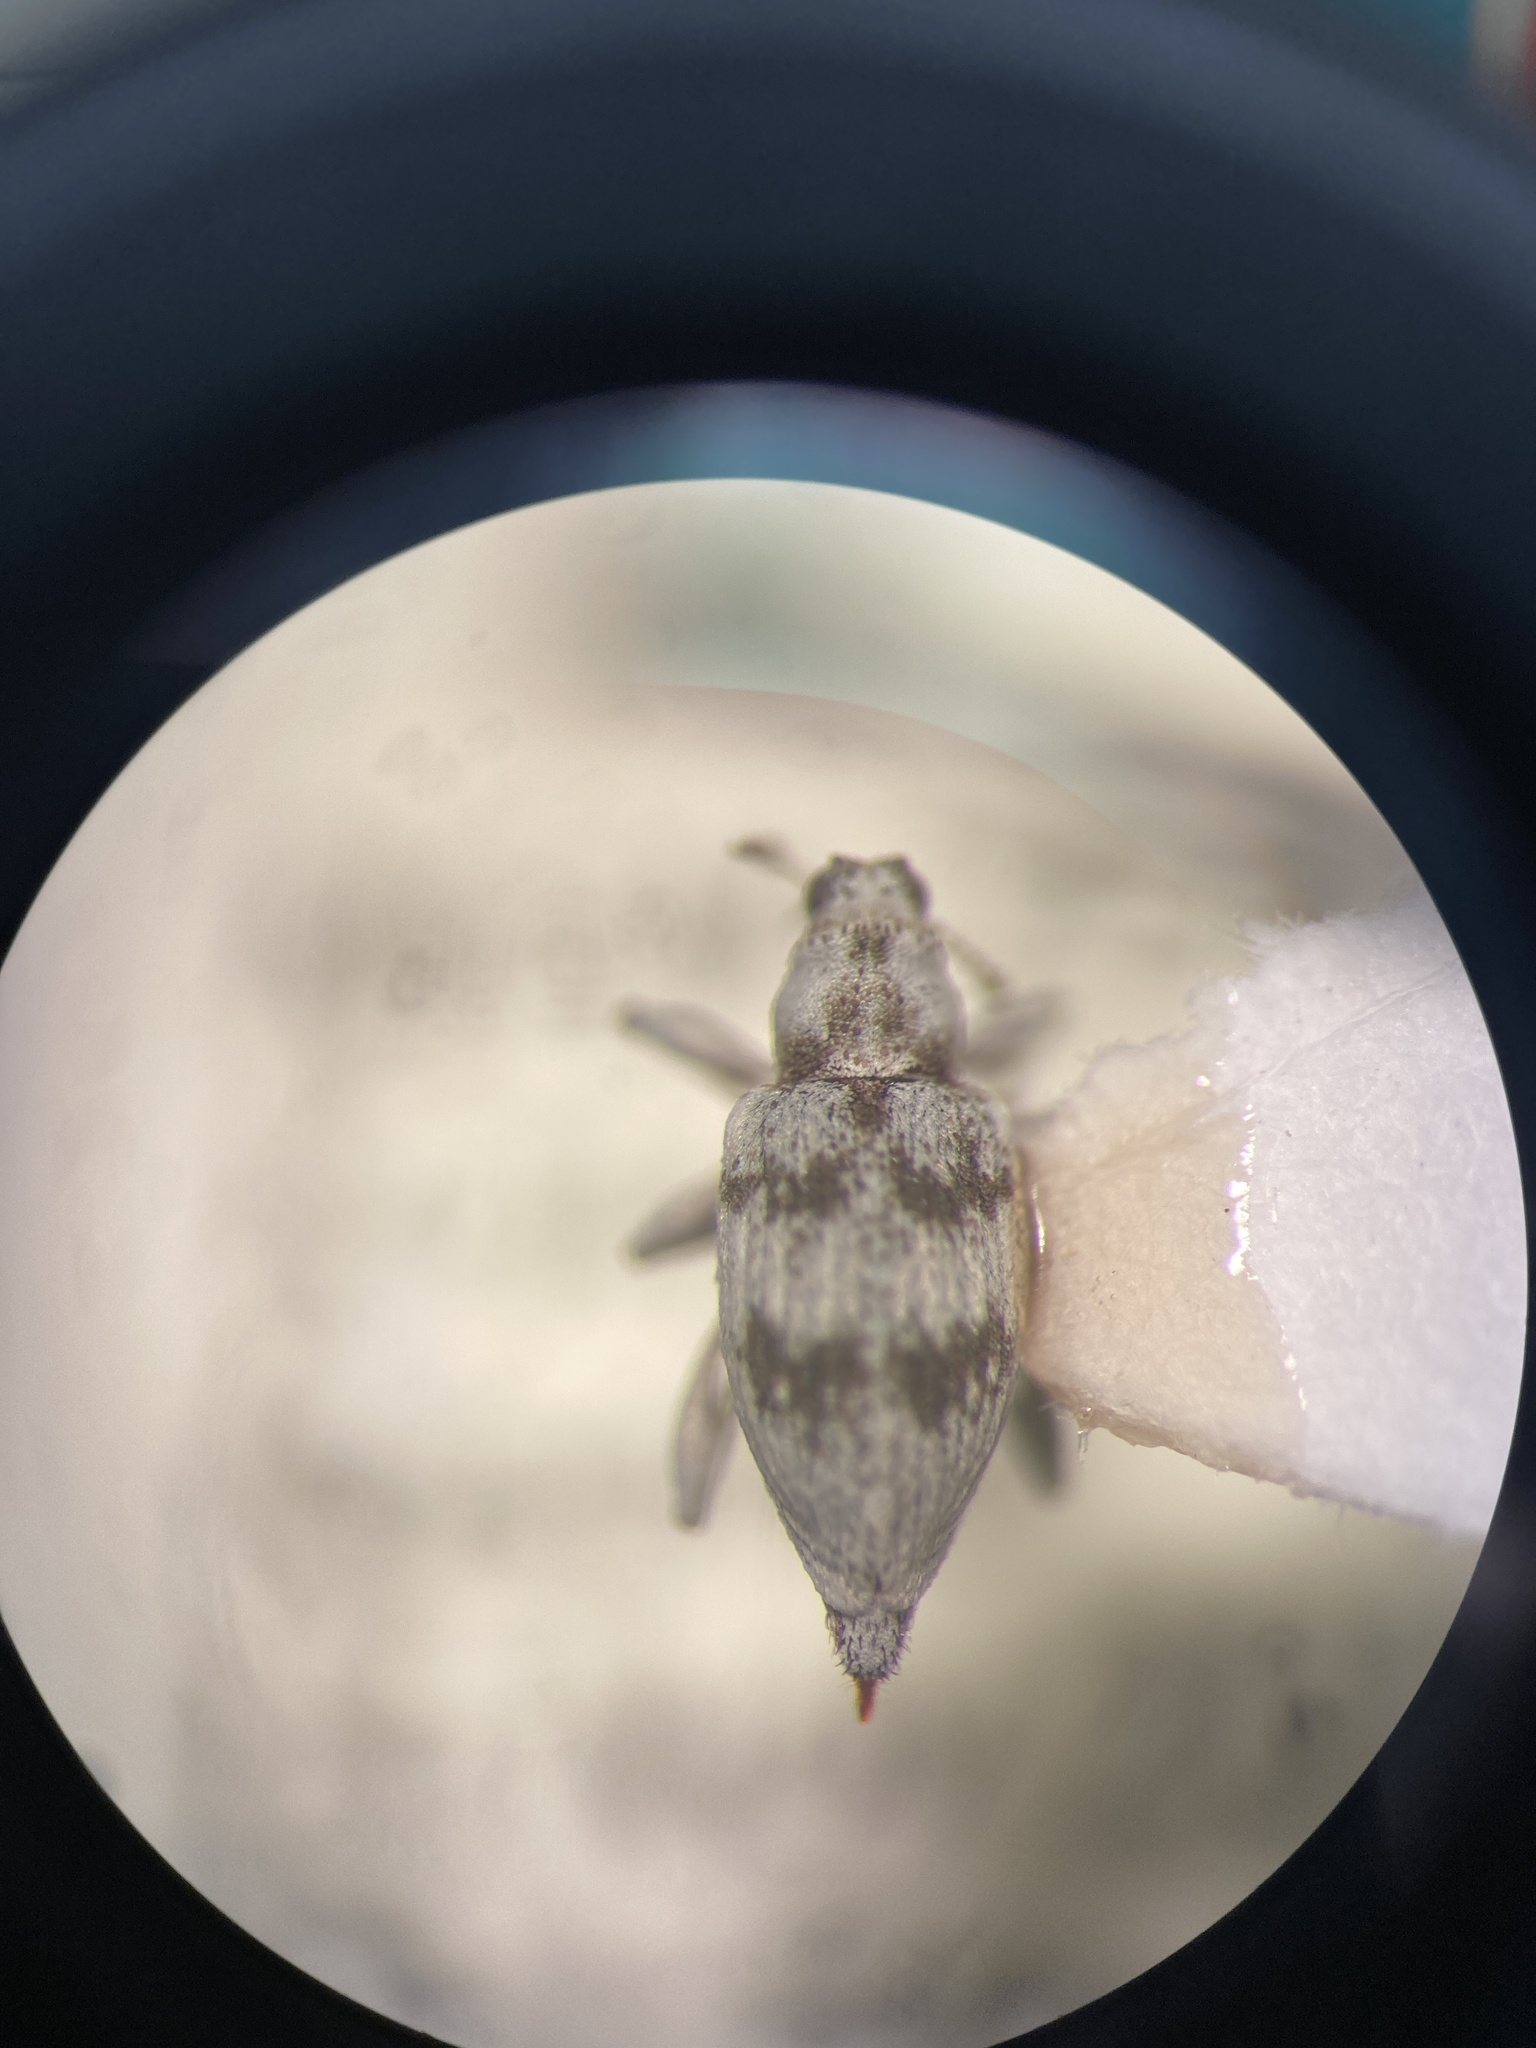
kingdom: Animalia
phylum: Arthropoda
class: Insecta
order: Coleoptera
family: Brachyceridae
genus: Colabotelus
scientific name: Colabotelus dealbatus
